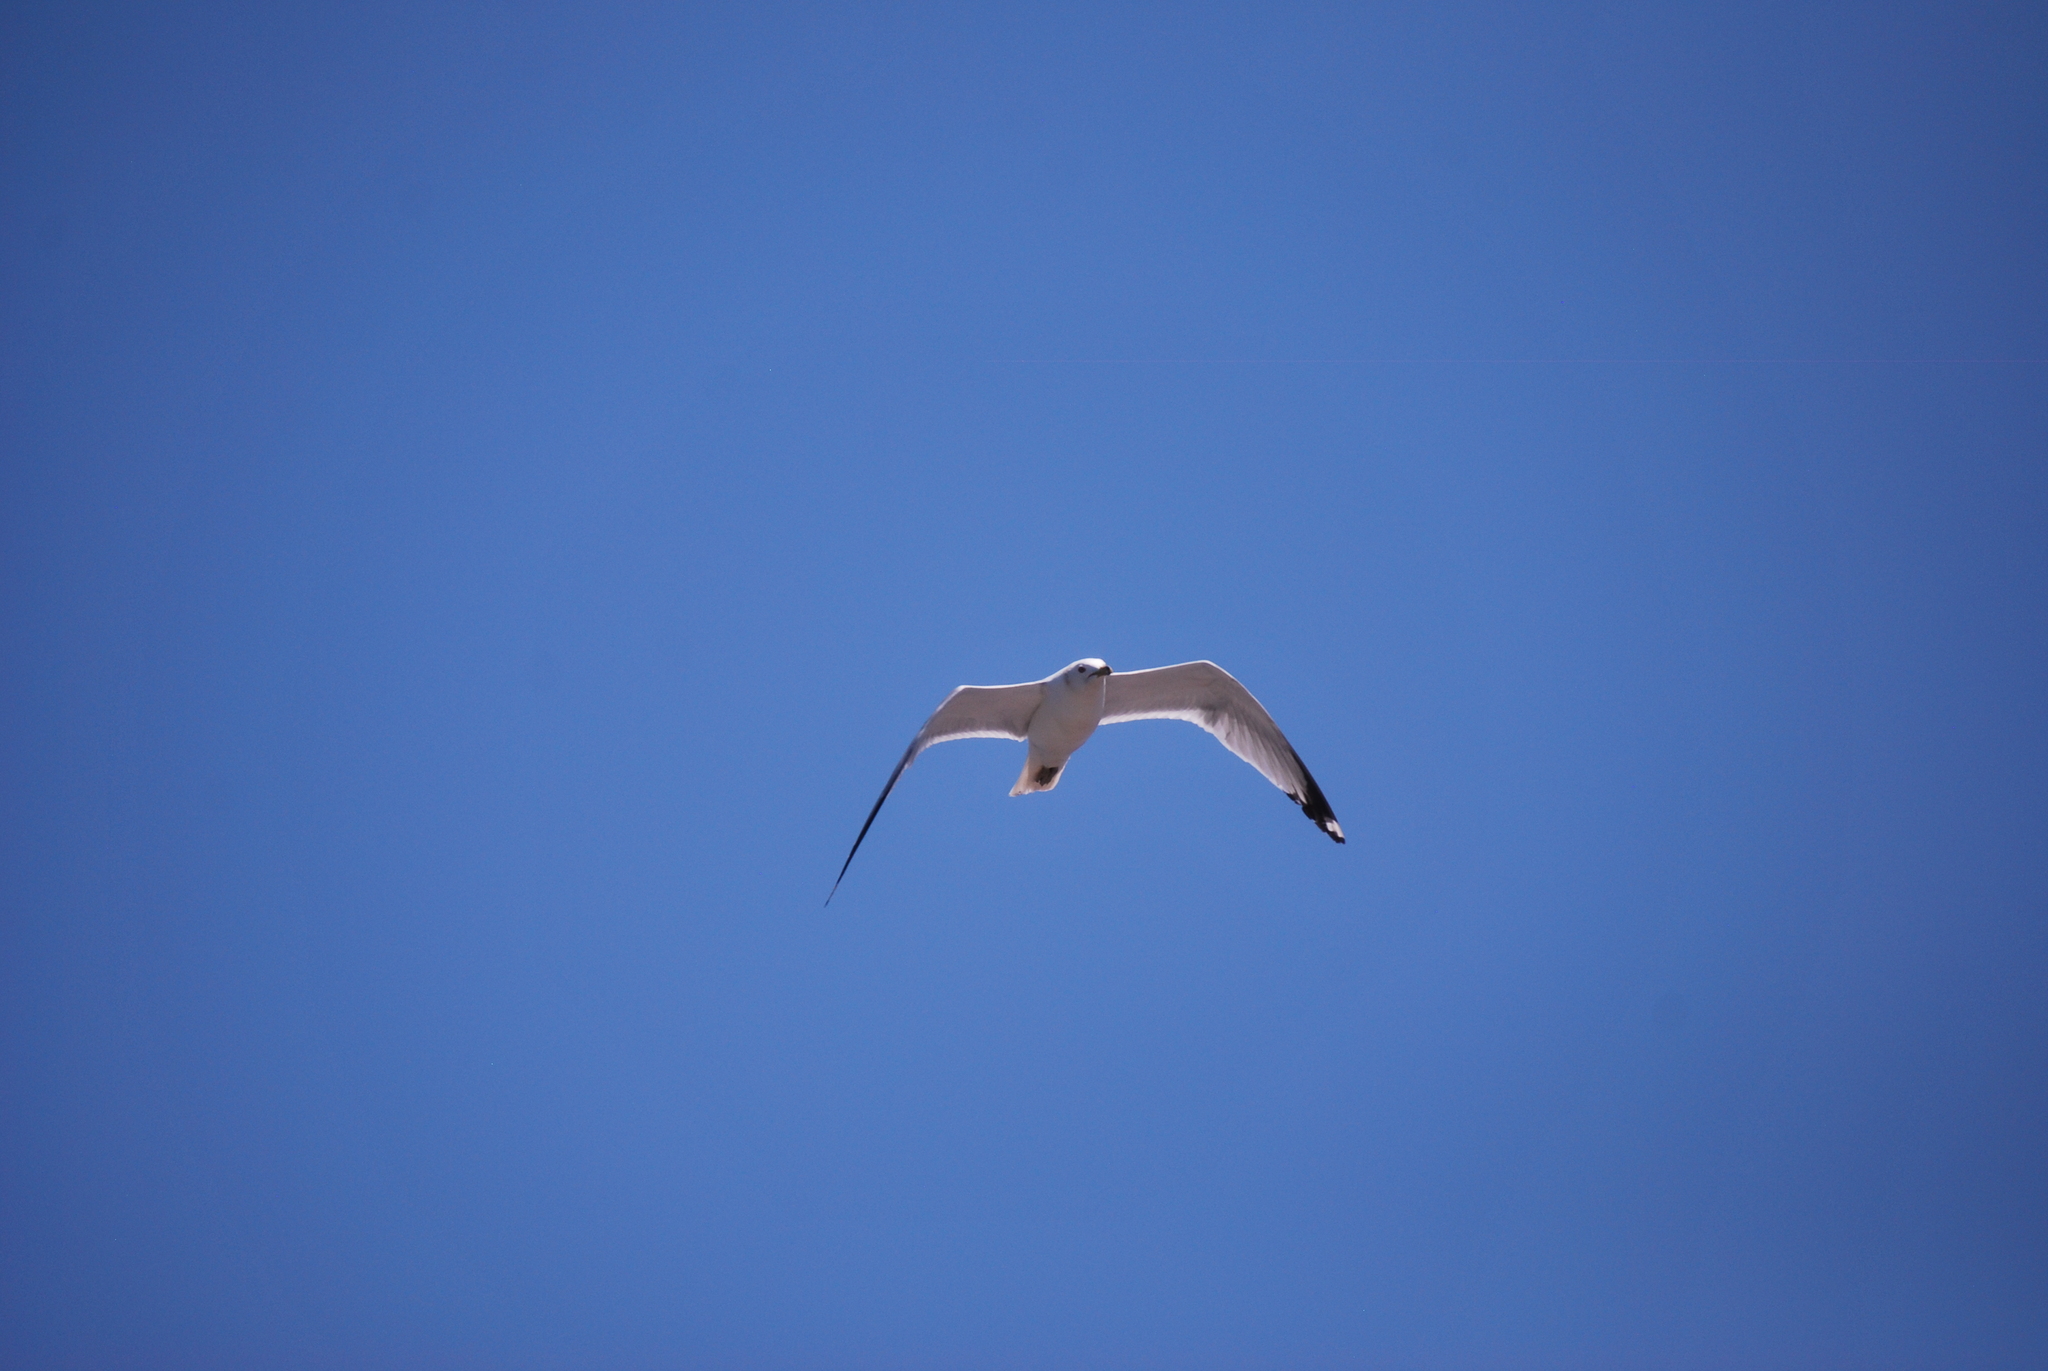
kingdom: Animalia
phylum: Chordata
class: Aves
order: Charadriiformes
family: Laridae
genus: Larus
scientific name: Larus delawarensis
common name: Ring-billed gull
